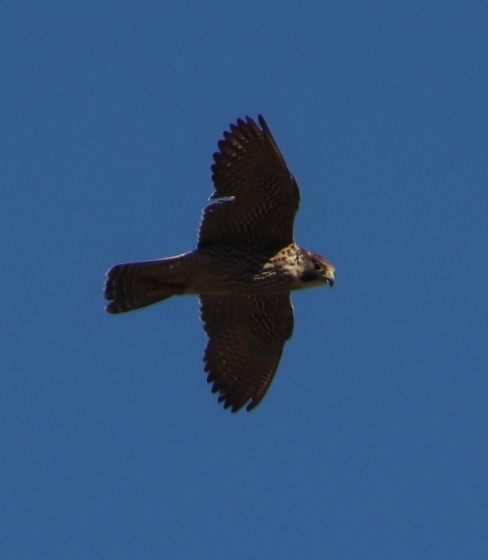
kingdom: Animalia
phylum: Chordata
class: Aves
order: Falconiformes
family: Falconidae
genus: Falco
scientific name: Falco peregrinus
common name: Peregrine falcon
